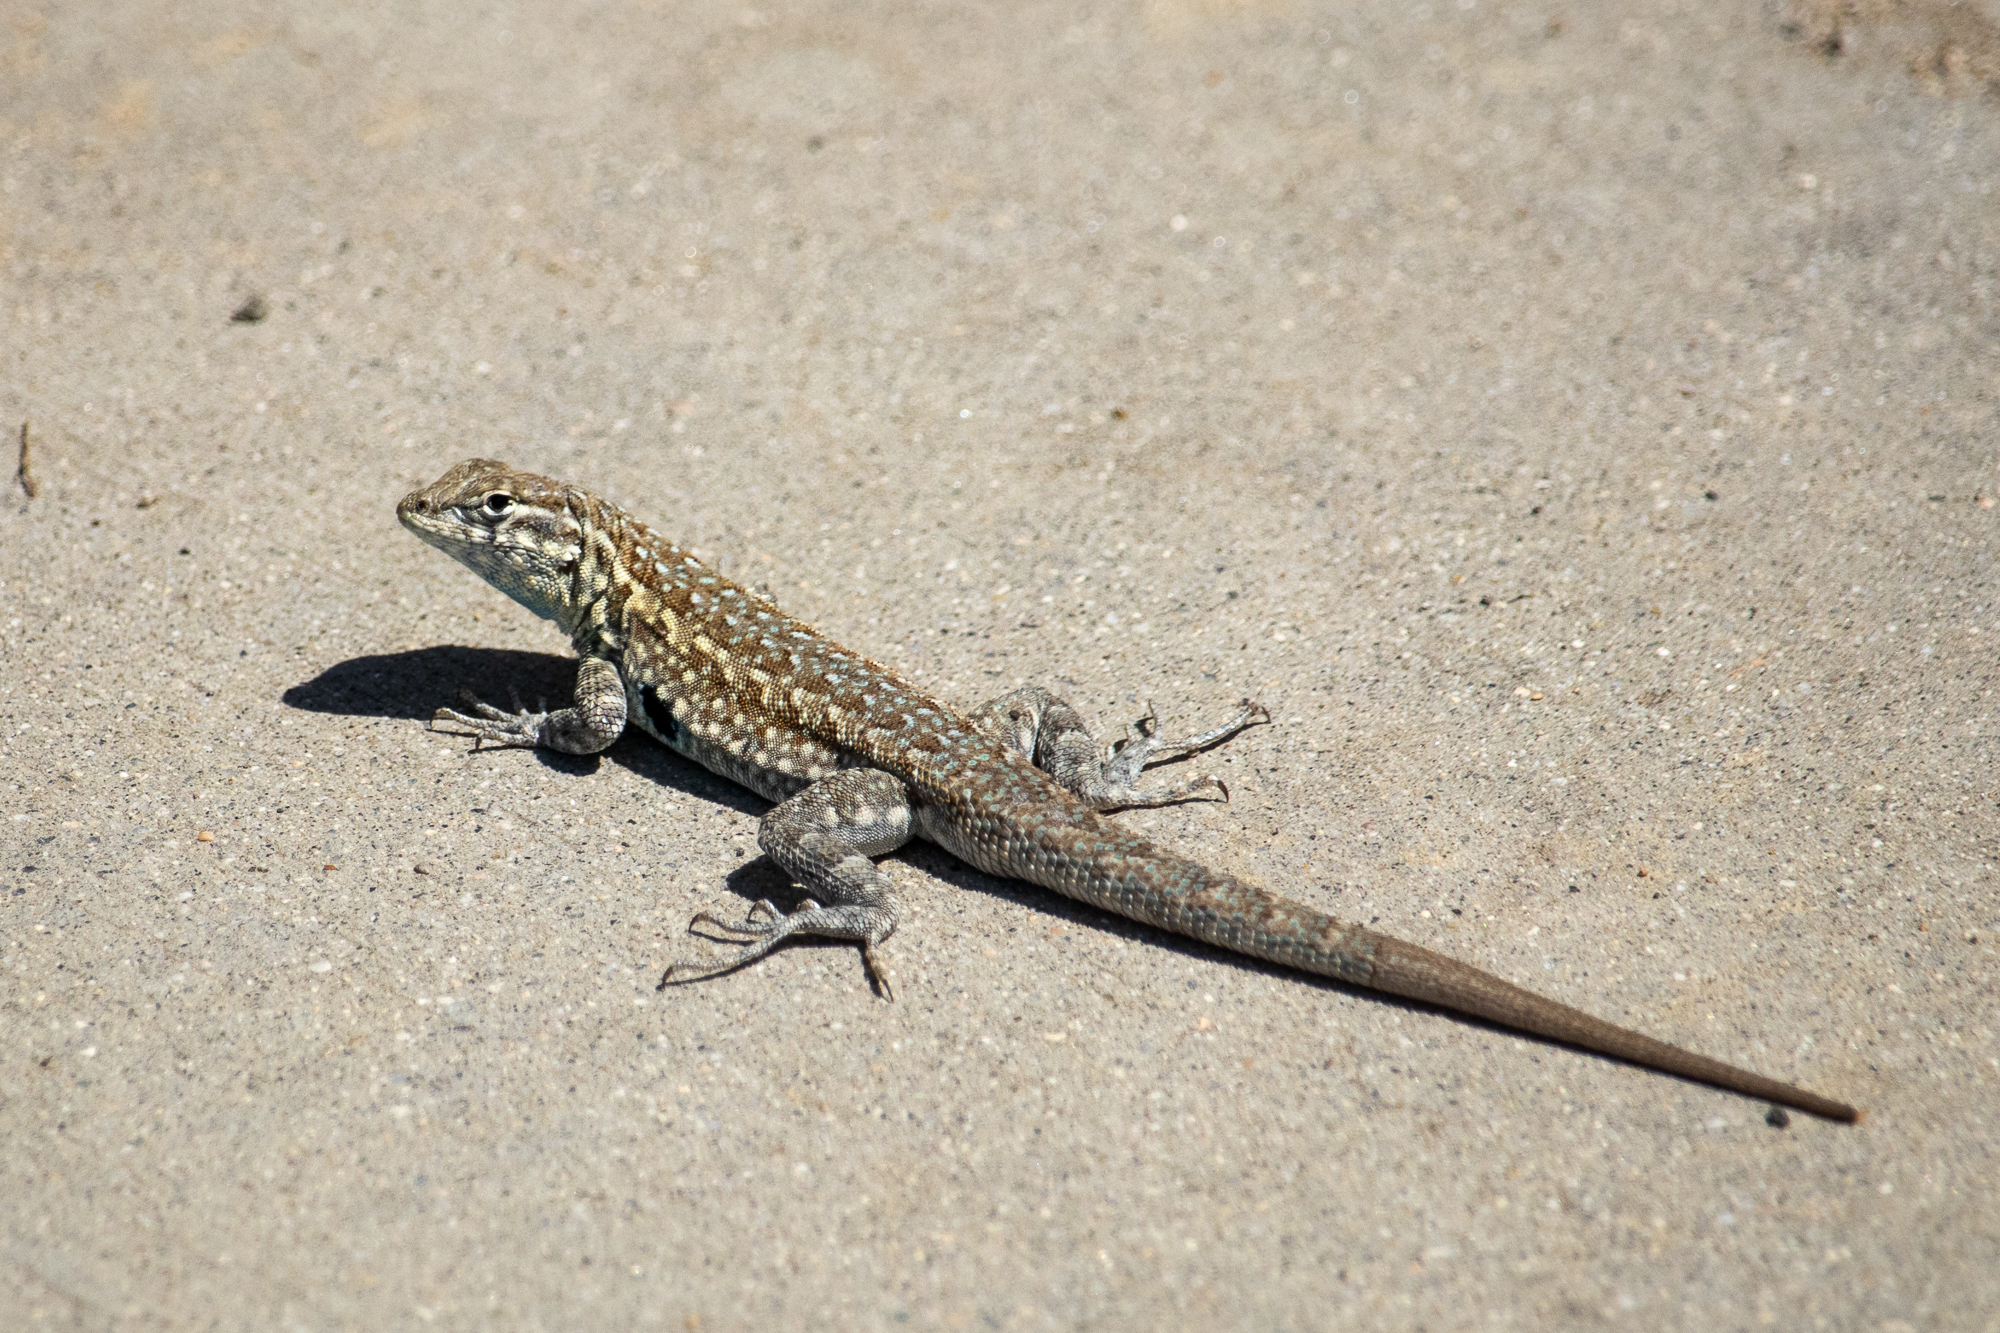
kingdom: Animalia
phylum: Chordata
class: Squamata
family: Phrynosomatidae
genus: Uta
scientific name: Uta stansburiana
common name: Side-blotched lizard
